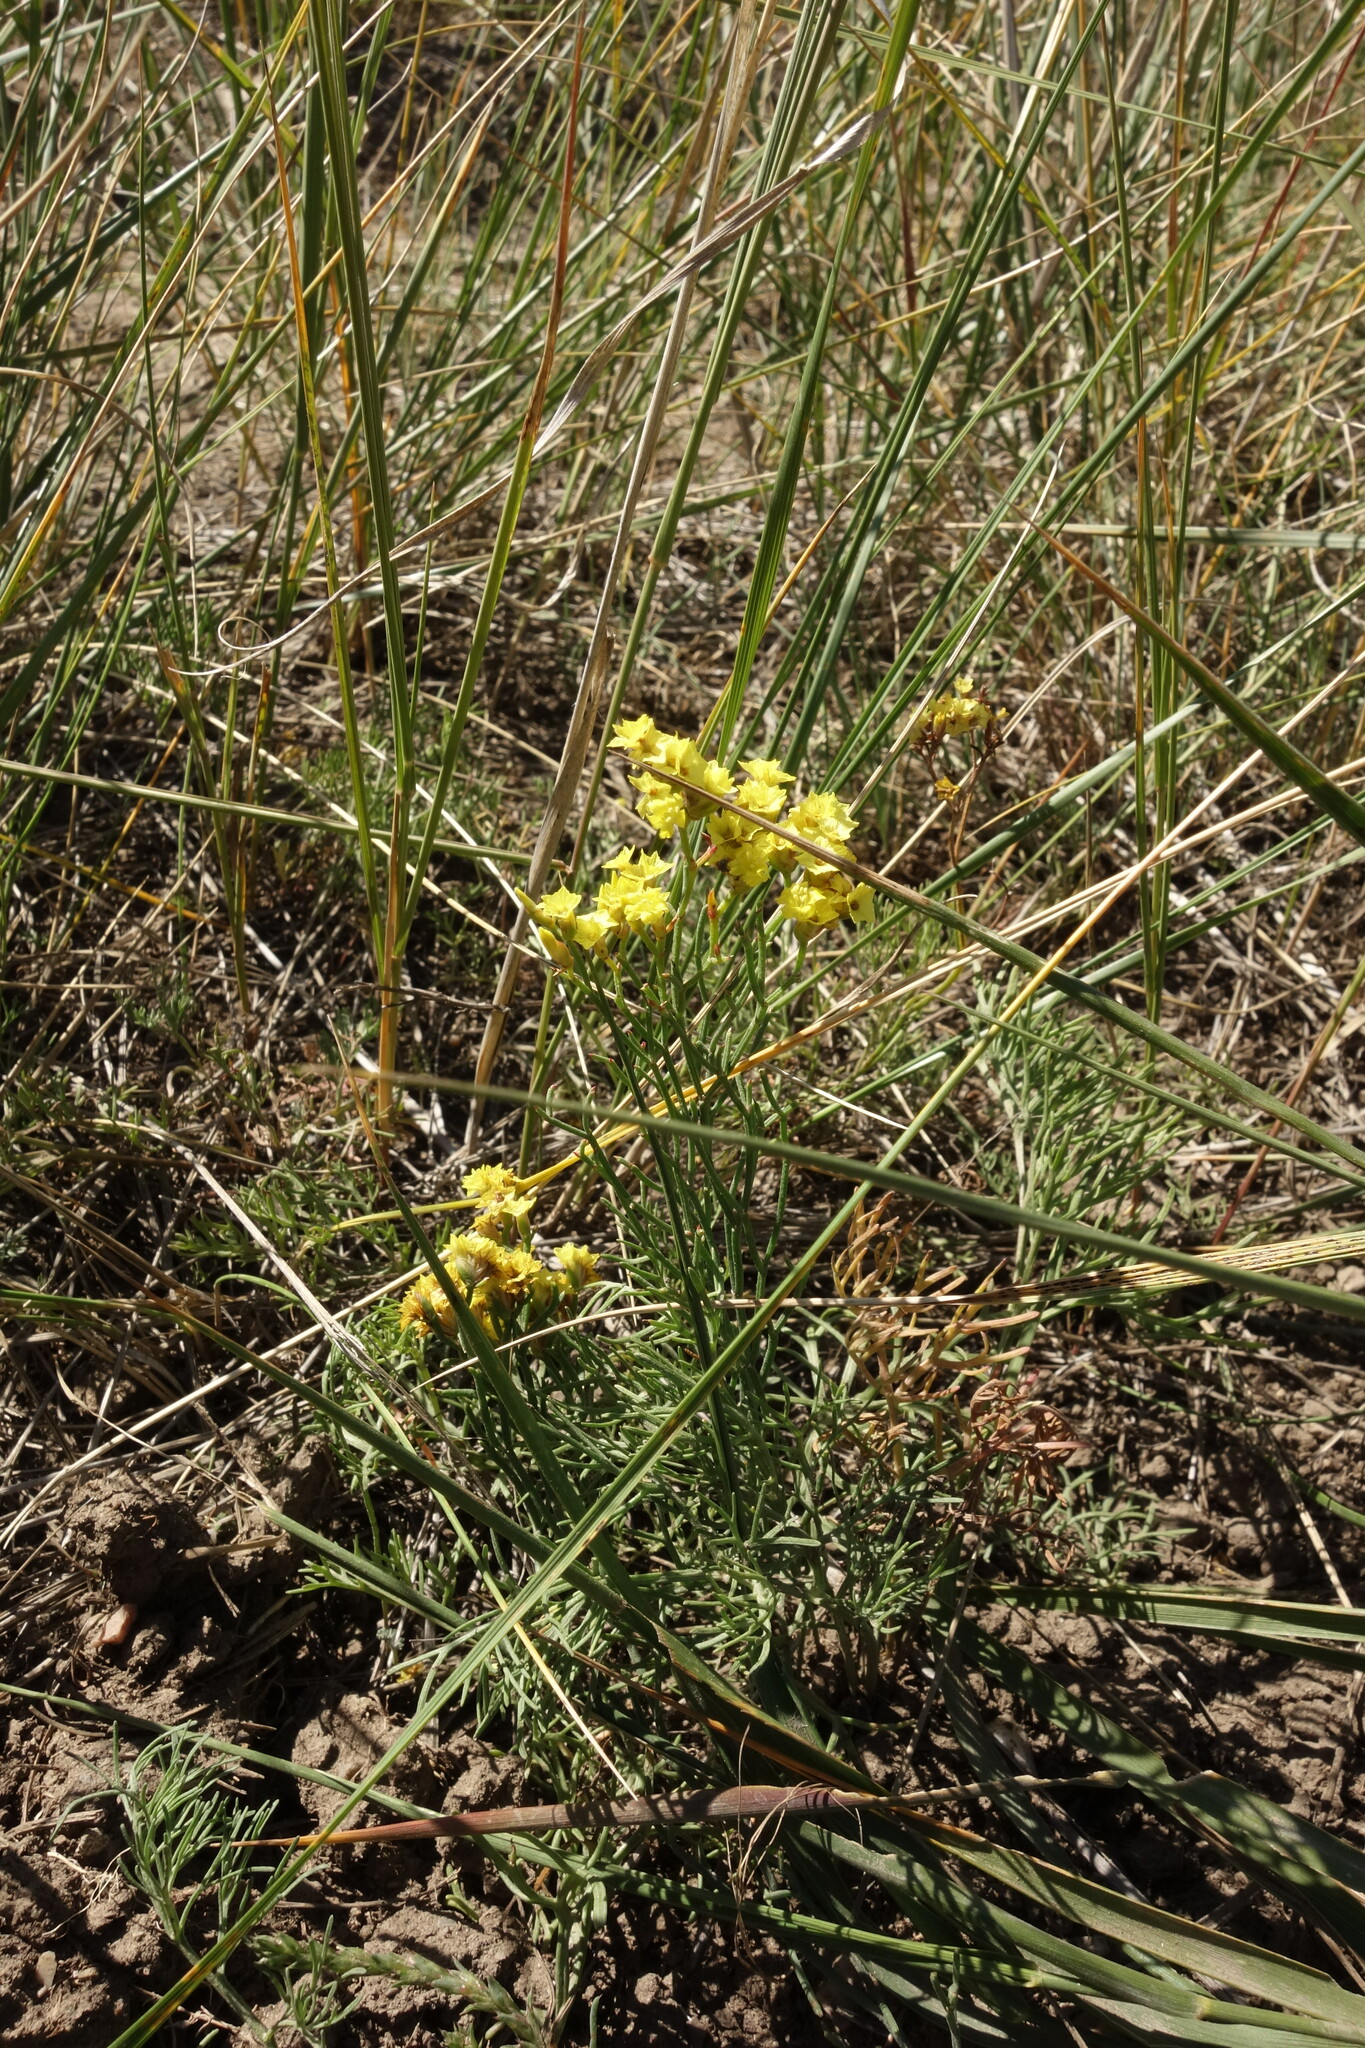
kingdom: Plantae
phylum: Tracheophyta
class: Magnoliopsida
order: Caryophyllales
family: Plumbaginaceae
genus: Limonium
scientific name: Limonium aureum
